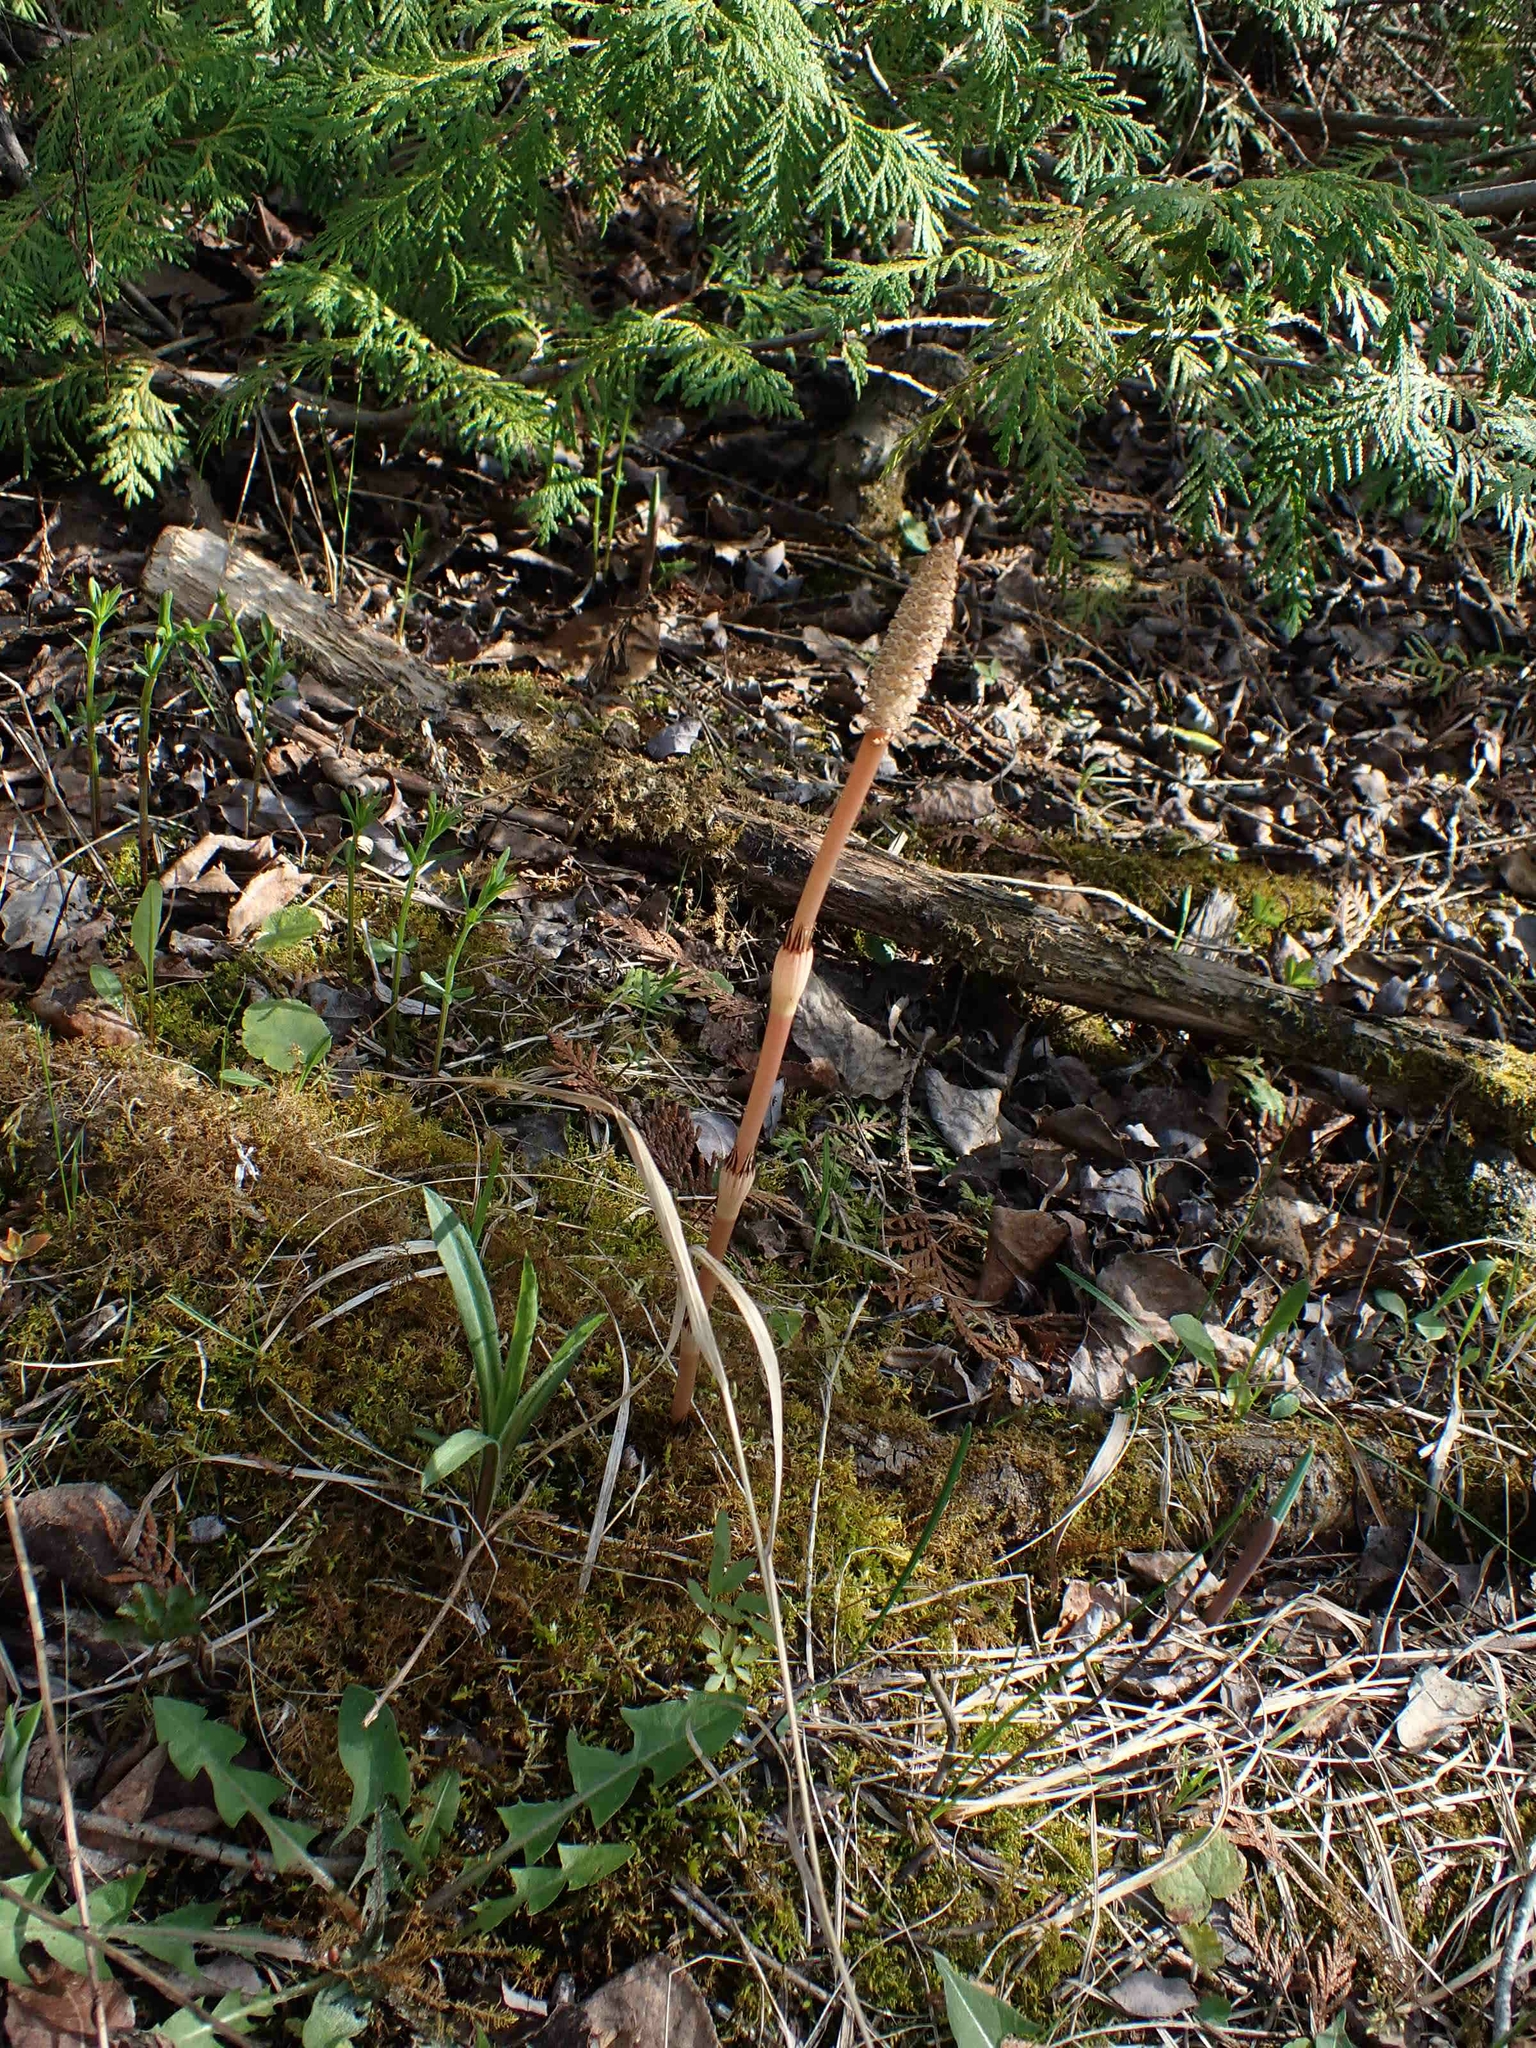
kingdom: Plantae
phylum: Tracheophyta
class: Polypodiopsida
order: Equisetales
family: Equisetaceae
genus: Equisetum
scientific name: Equisetum arvense
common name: Field horsetail
